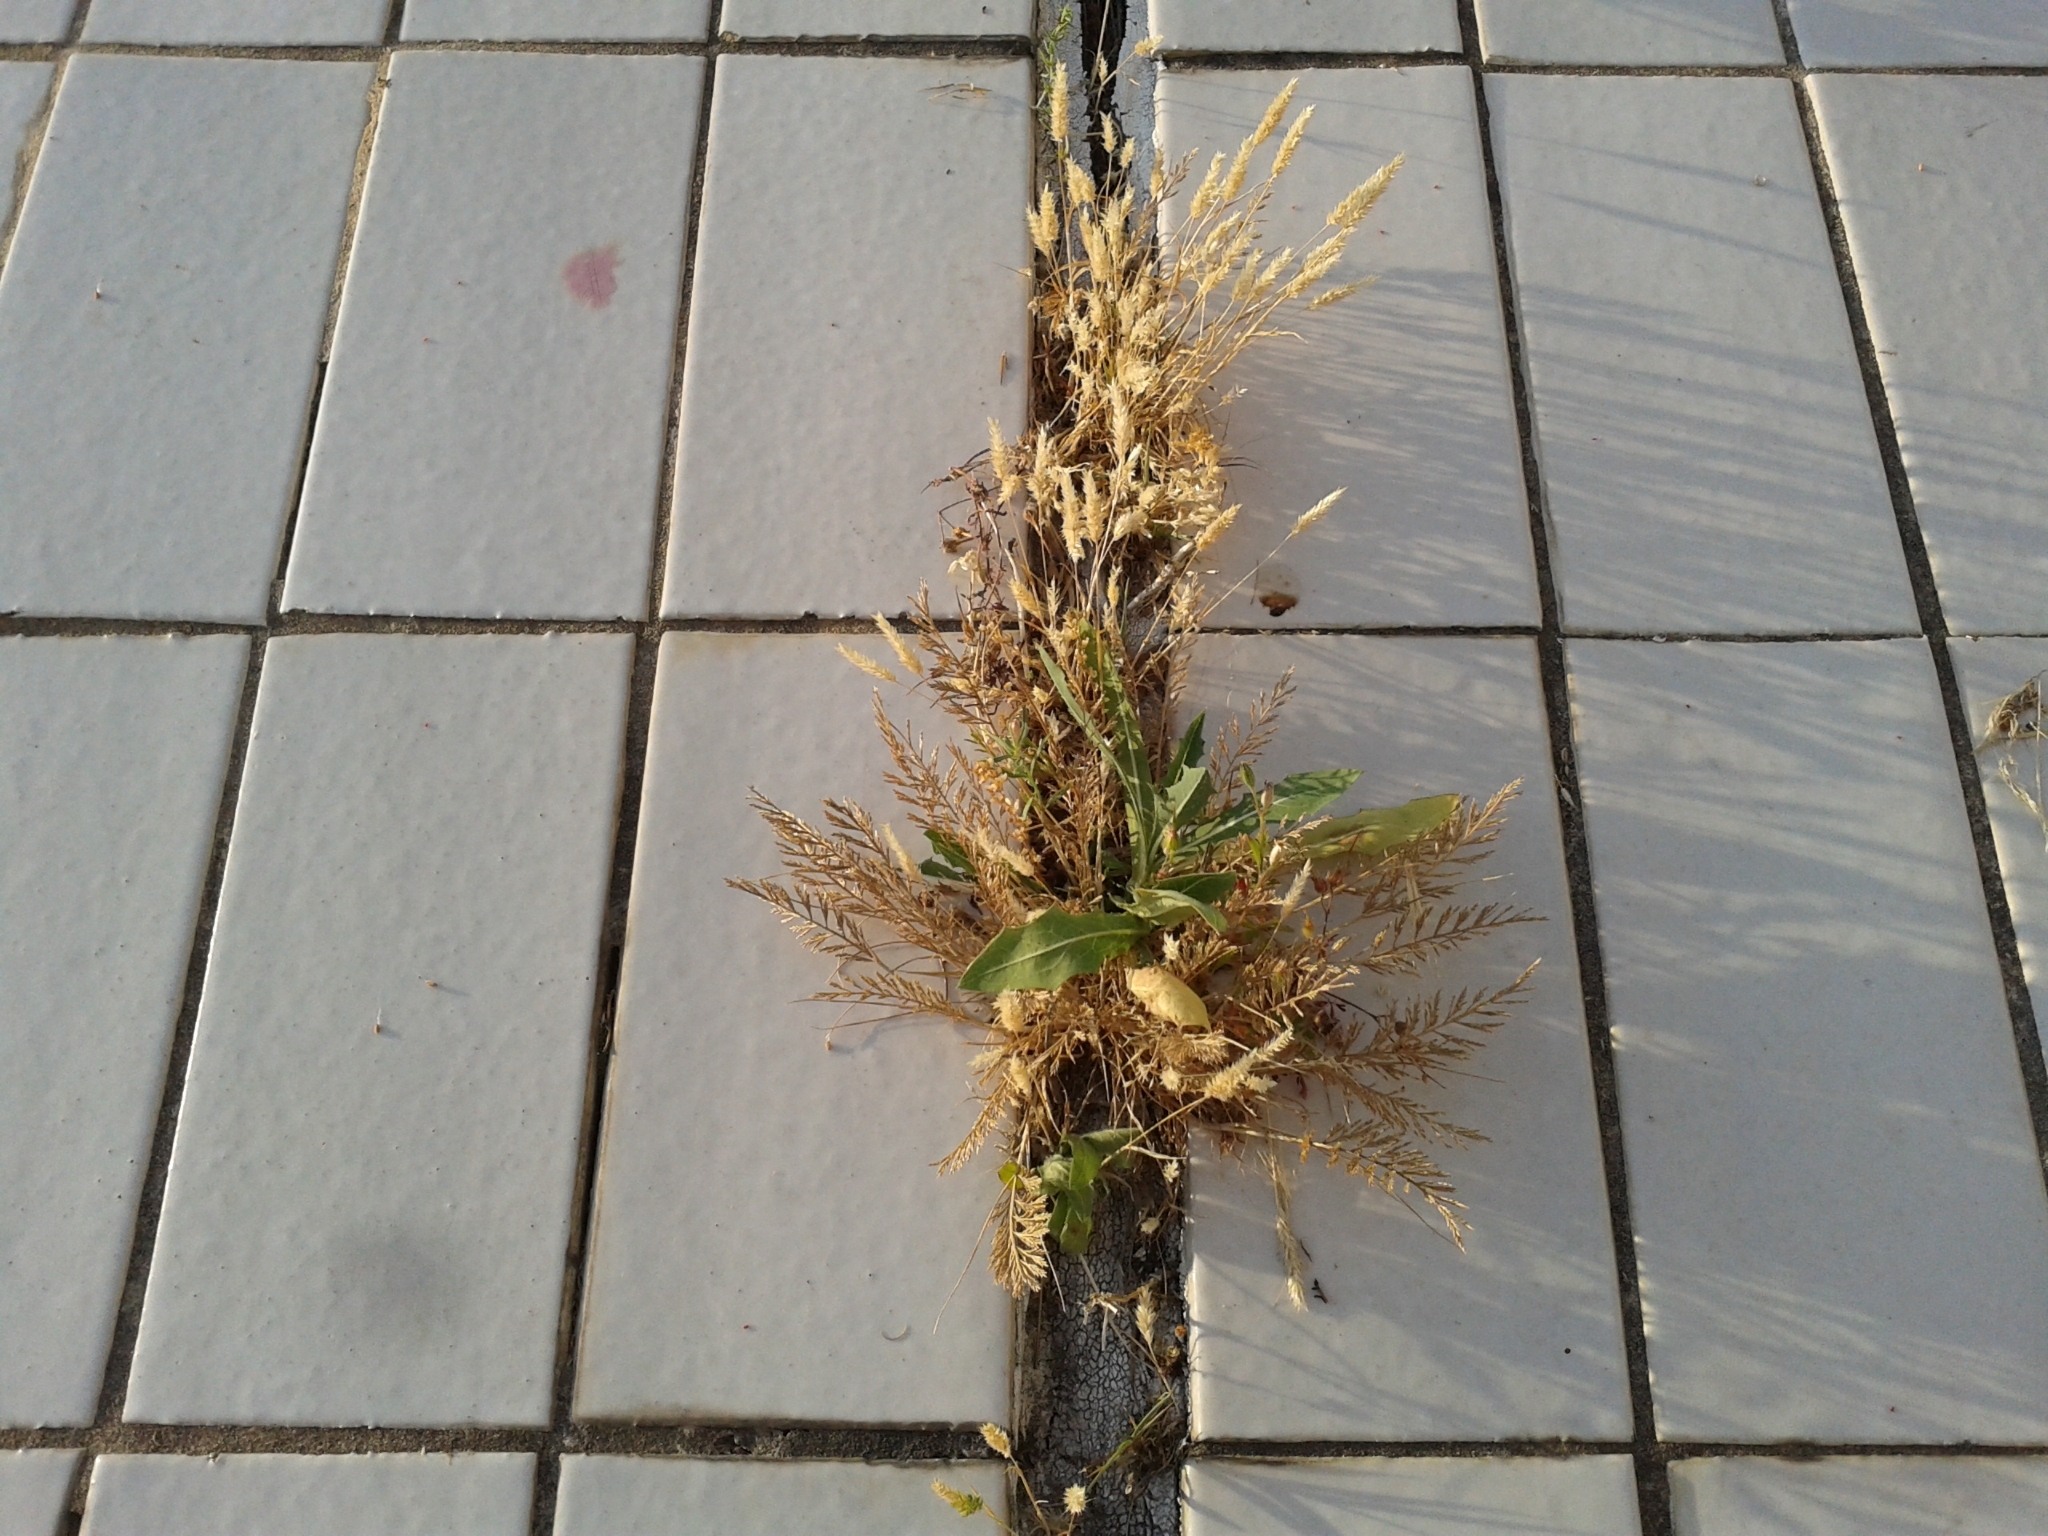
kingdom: Plantae
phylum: Tracheophyta
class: Liliopsida
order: Poales
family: Poaceae
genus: Catapodium
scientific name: Catapodium rigidum
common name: Fern-grass
